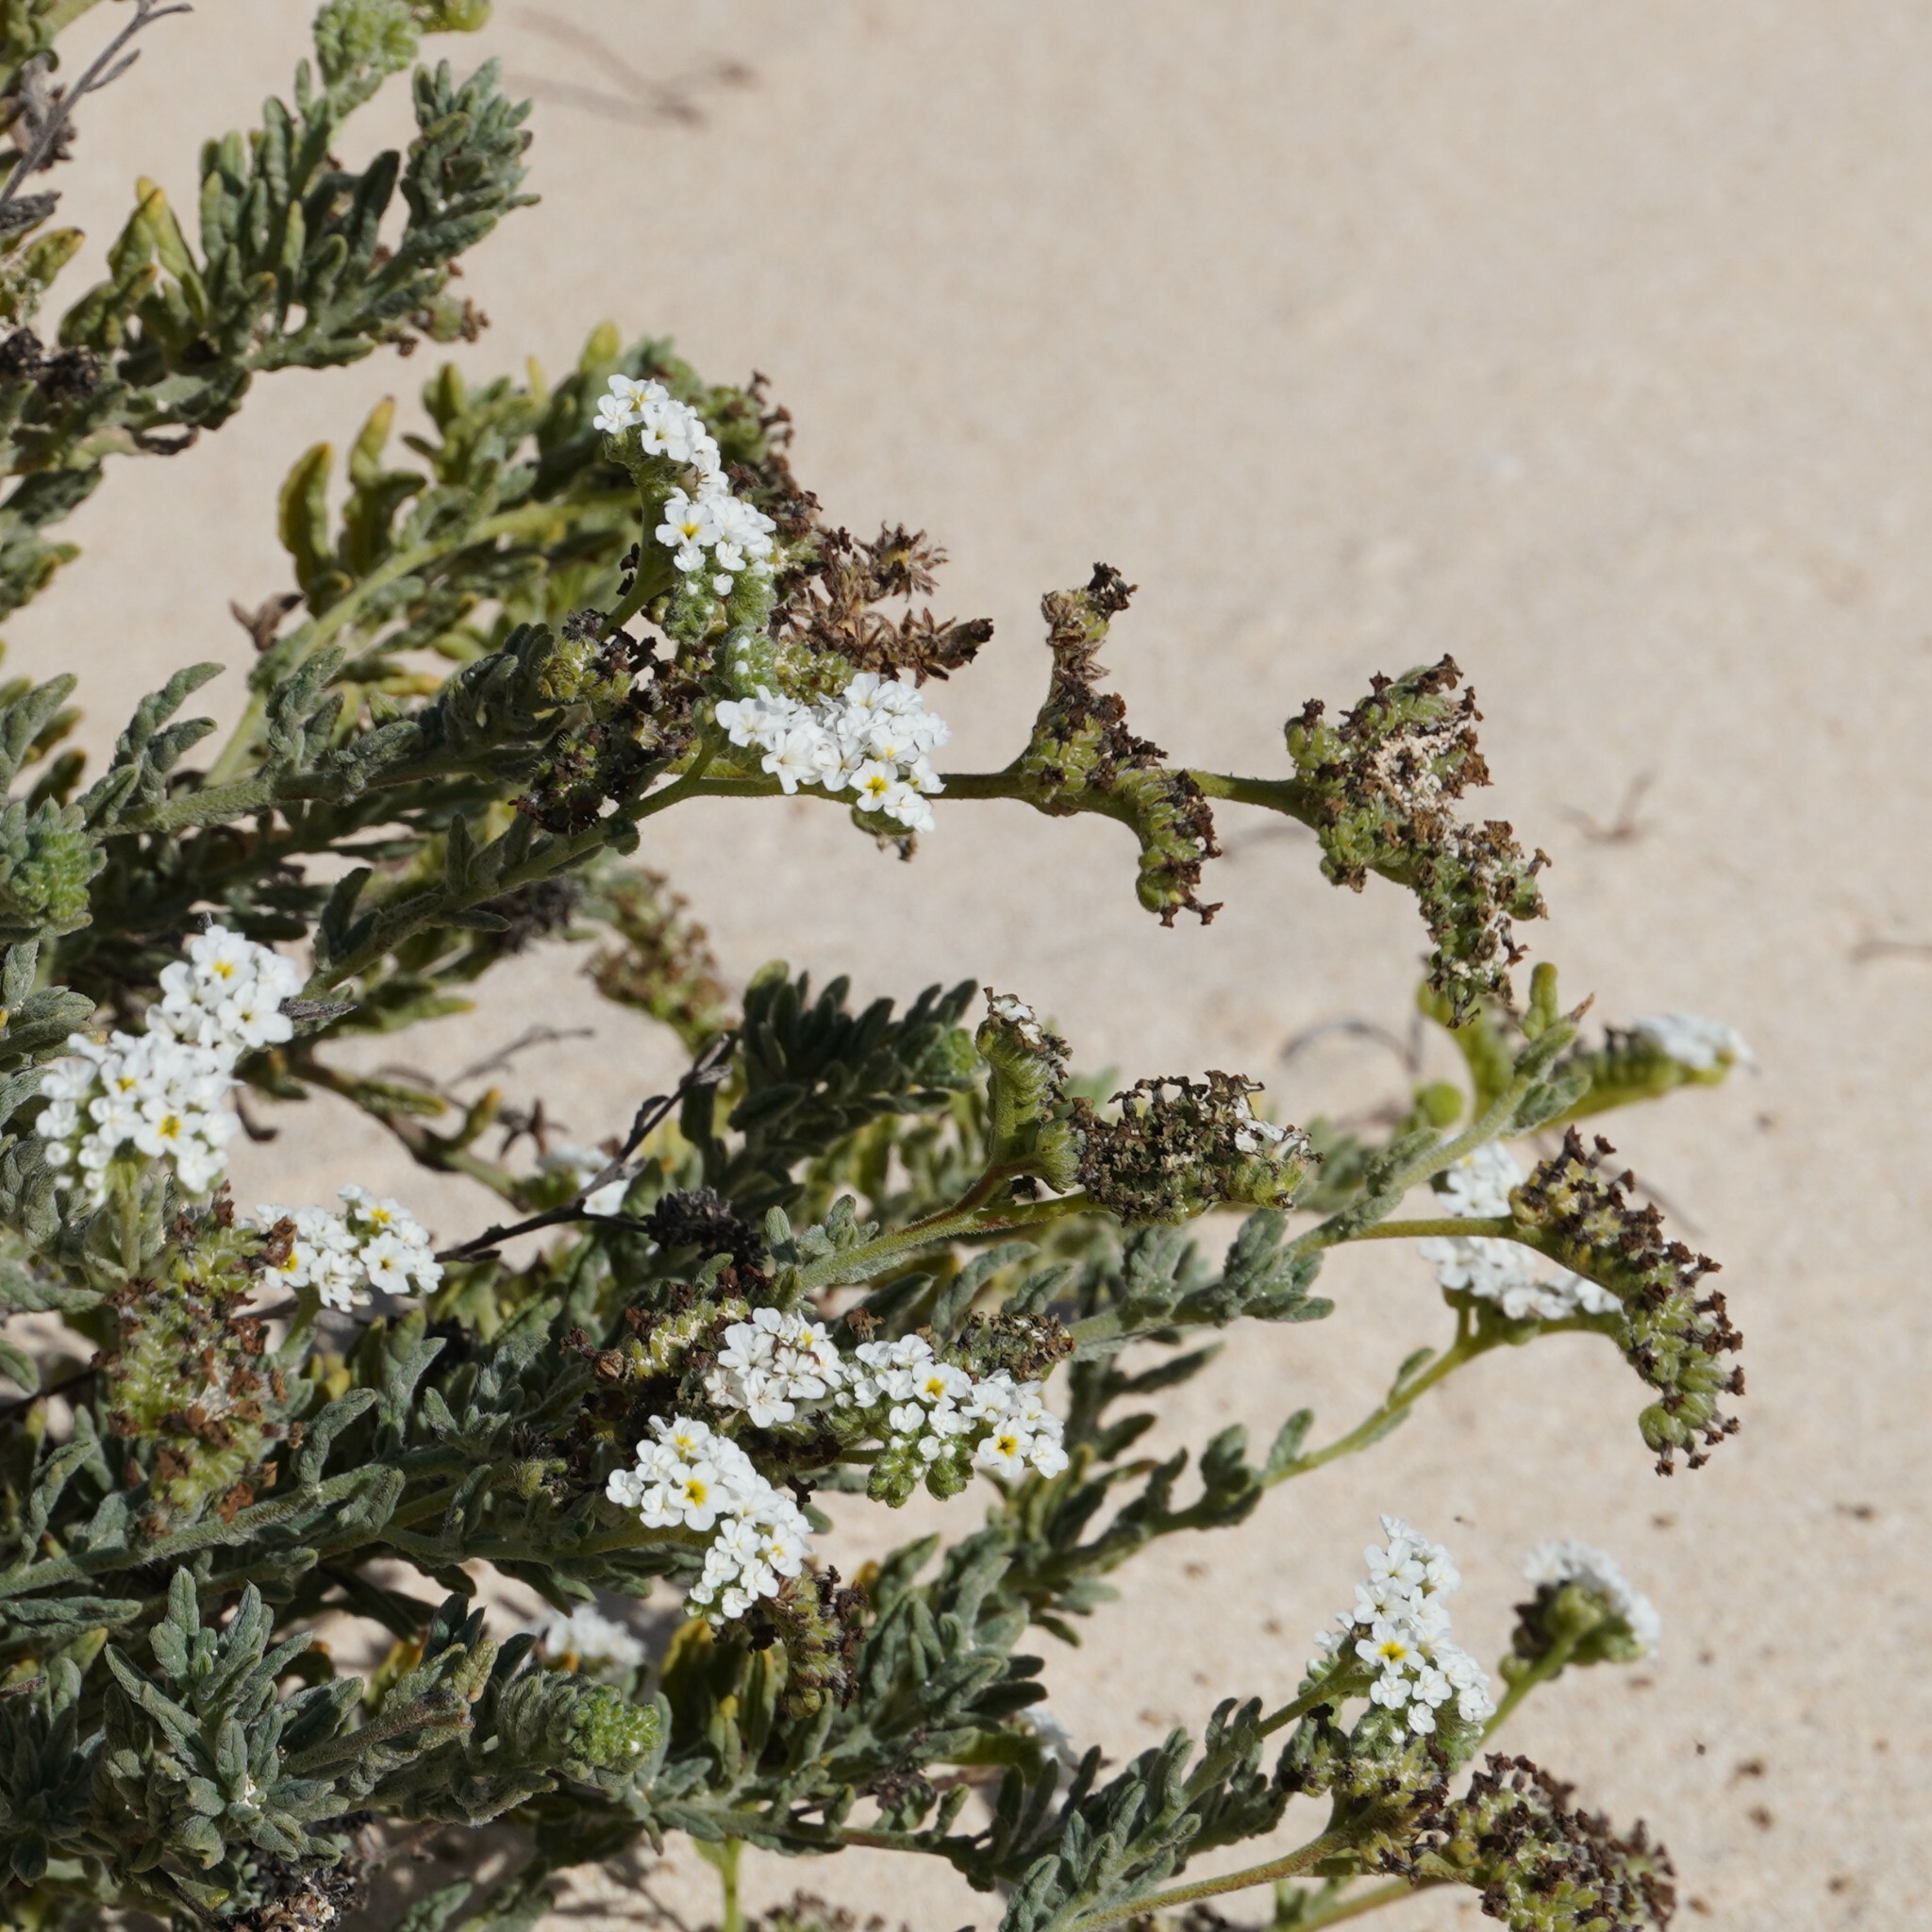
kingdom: Plantae
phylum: Tracheophyta
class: Magnoliopsida
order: Boraginales
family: Heliotropiaceae
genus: Heliotropium
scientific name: Heliotropium ramosissimum
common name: Wavy heliotrope
